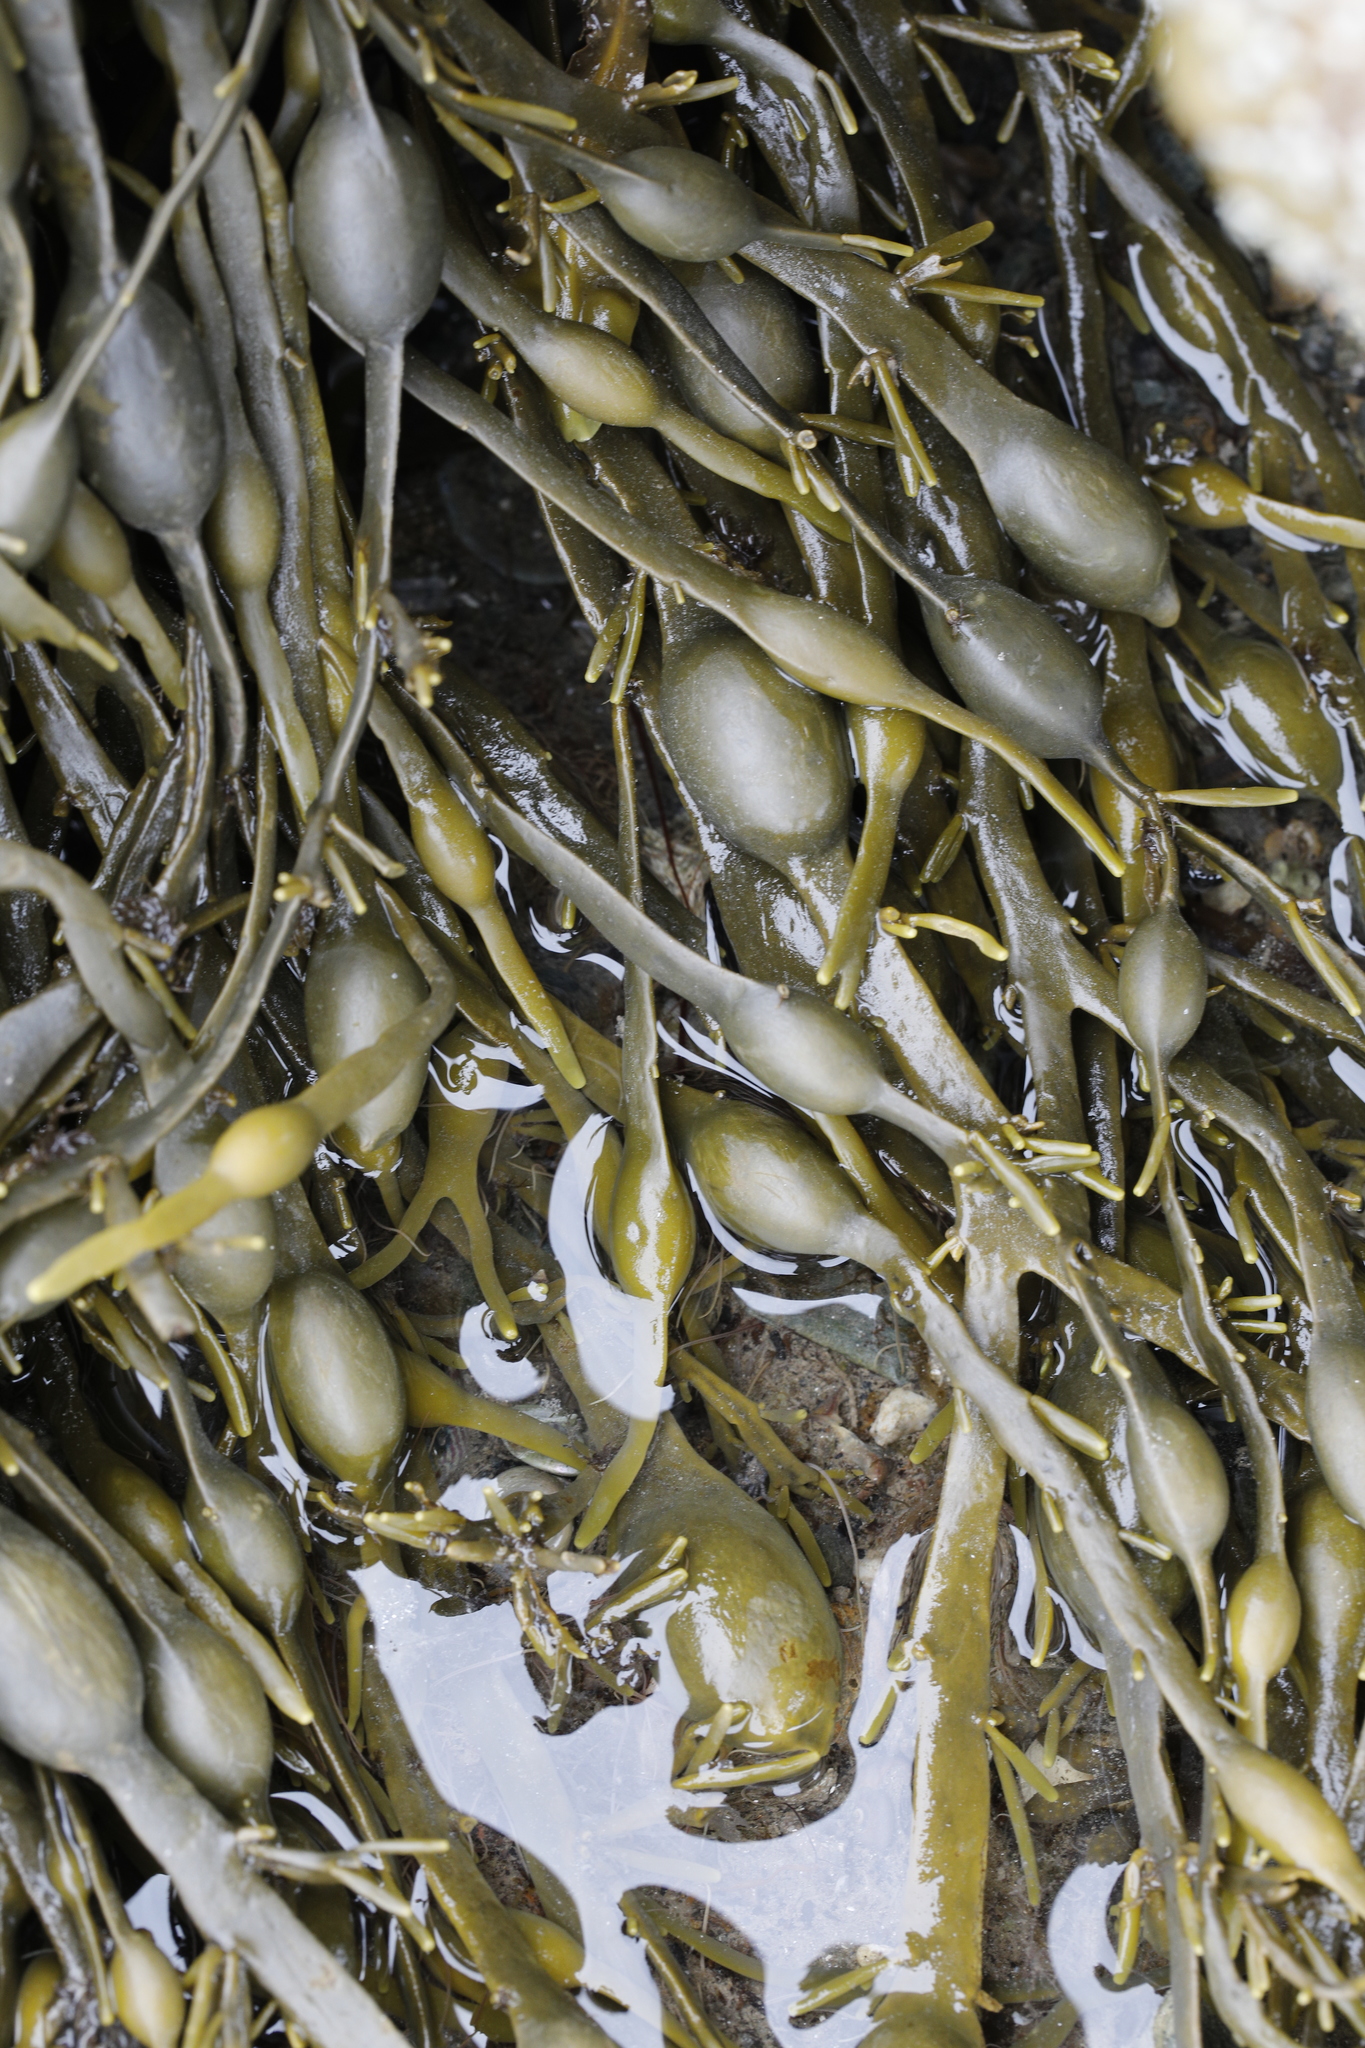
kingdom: Chromista
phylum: Ochrophyta
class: Phaeophyceae
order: Fucales
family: Fucaceae
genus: Ascophyllum
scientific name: Ascophyllum nodosum
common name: Knotted wrack
